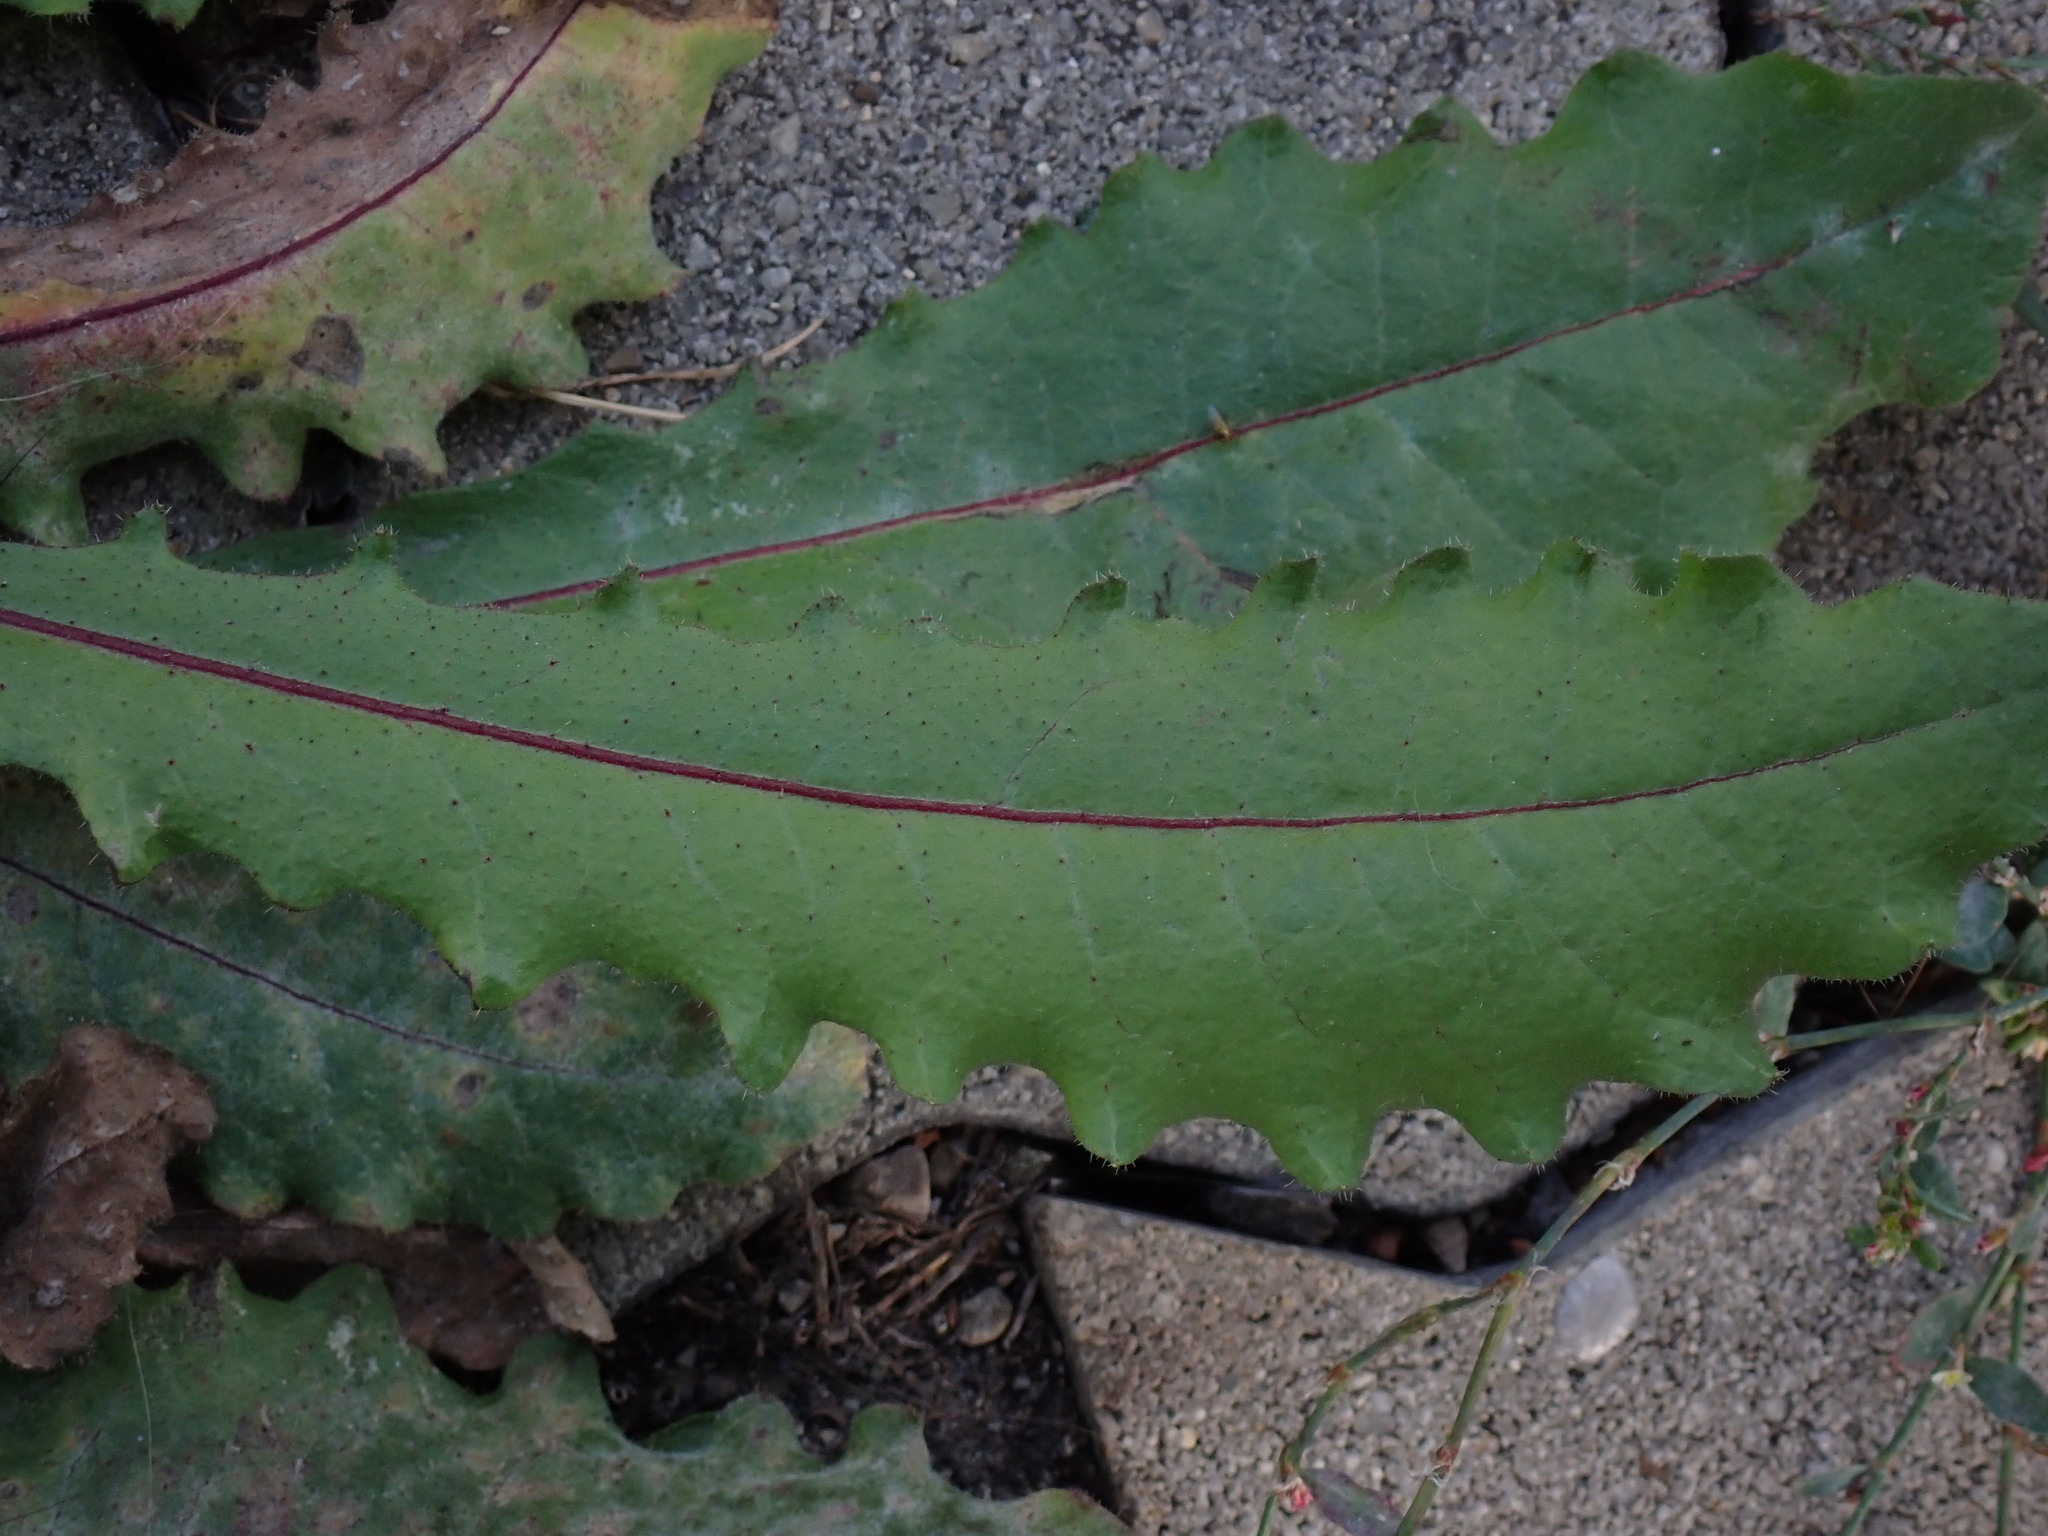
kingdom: Plantae
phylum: Tracheophyta
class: Magnoliopsida
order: Asterales
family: Asteraceae
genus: Picris
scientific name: Picris hieracioides
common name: Hawkweed oxtongue
